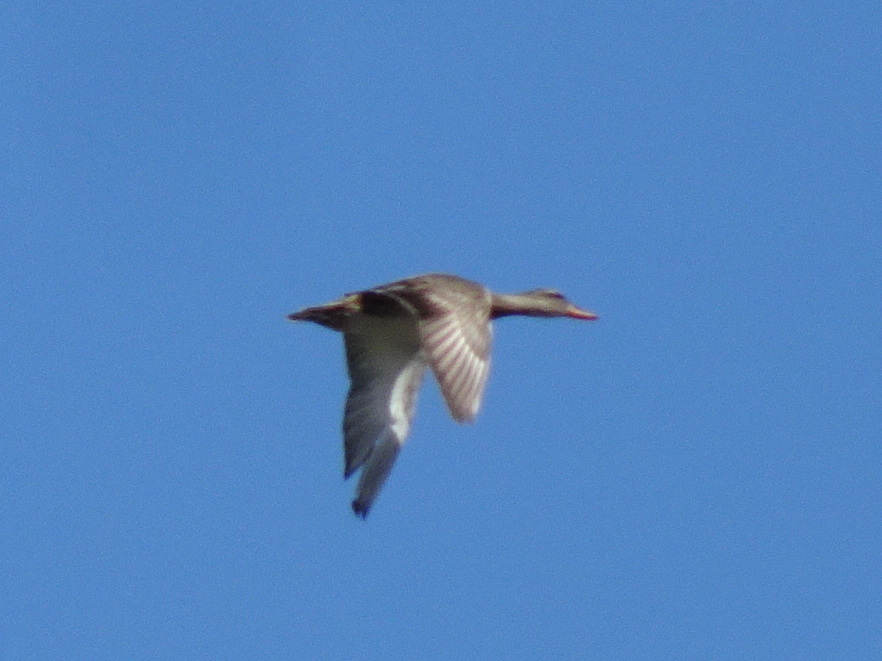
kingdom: Animalia
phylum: Chordata
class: Aves
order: Anseriformes
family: Anatidae
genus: Mareca
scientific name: Mareca strepera
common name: Gadwall
